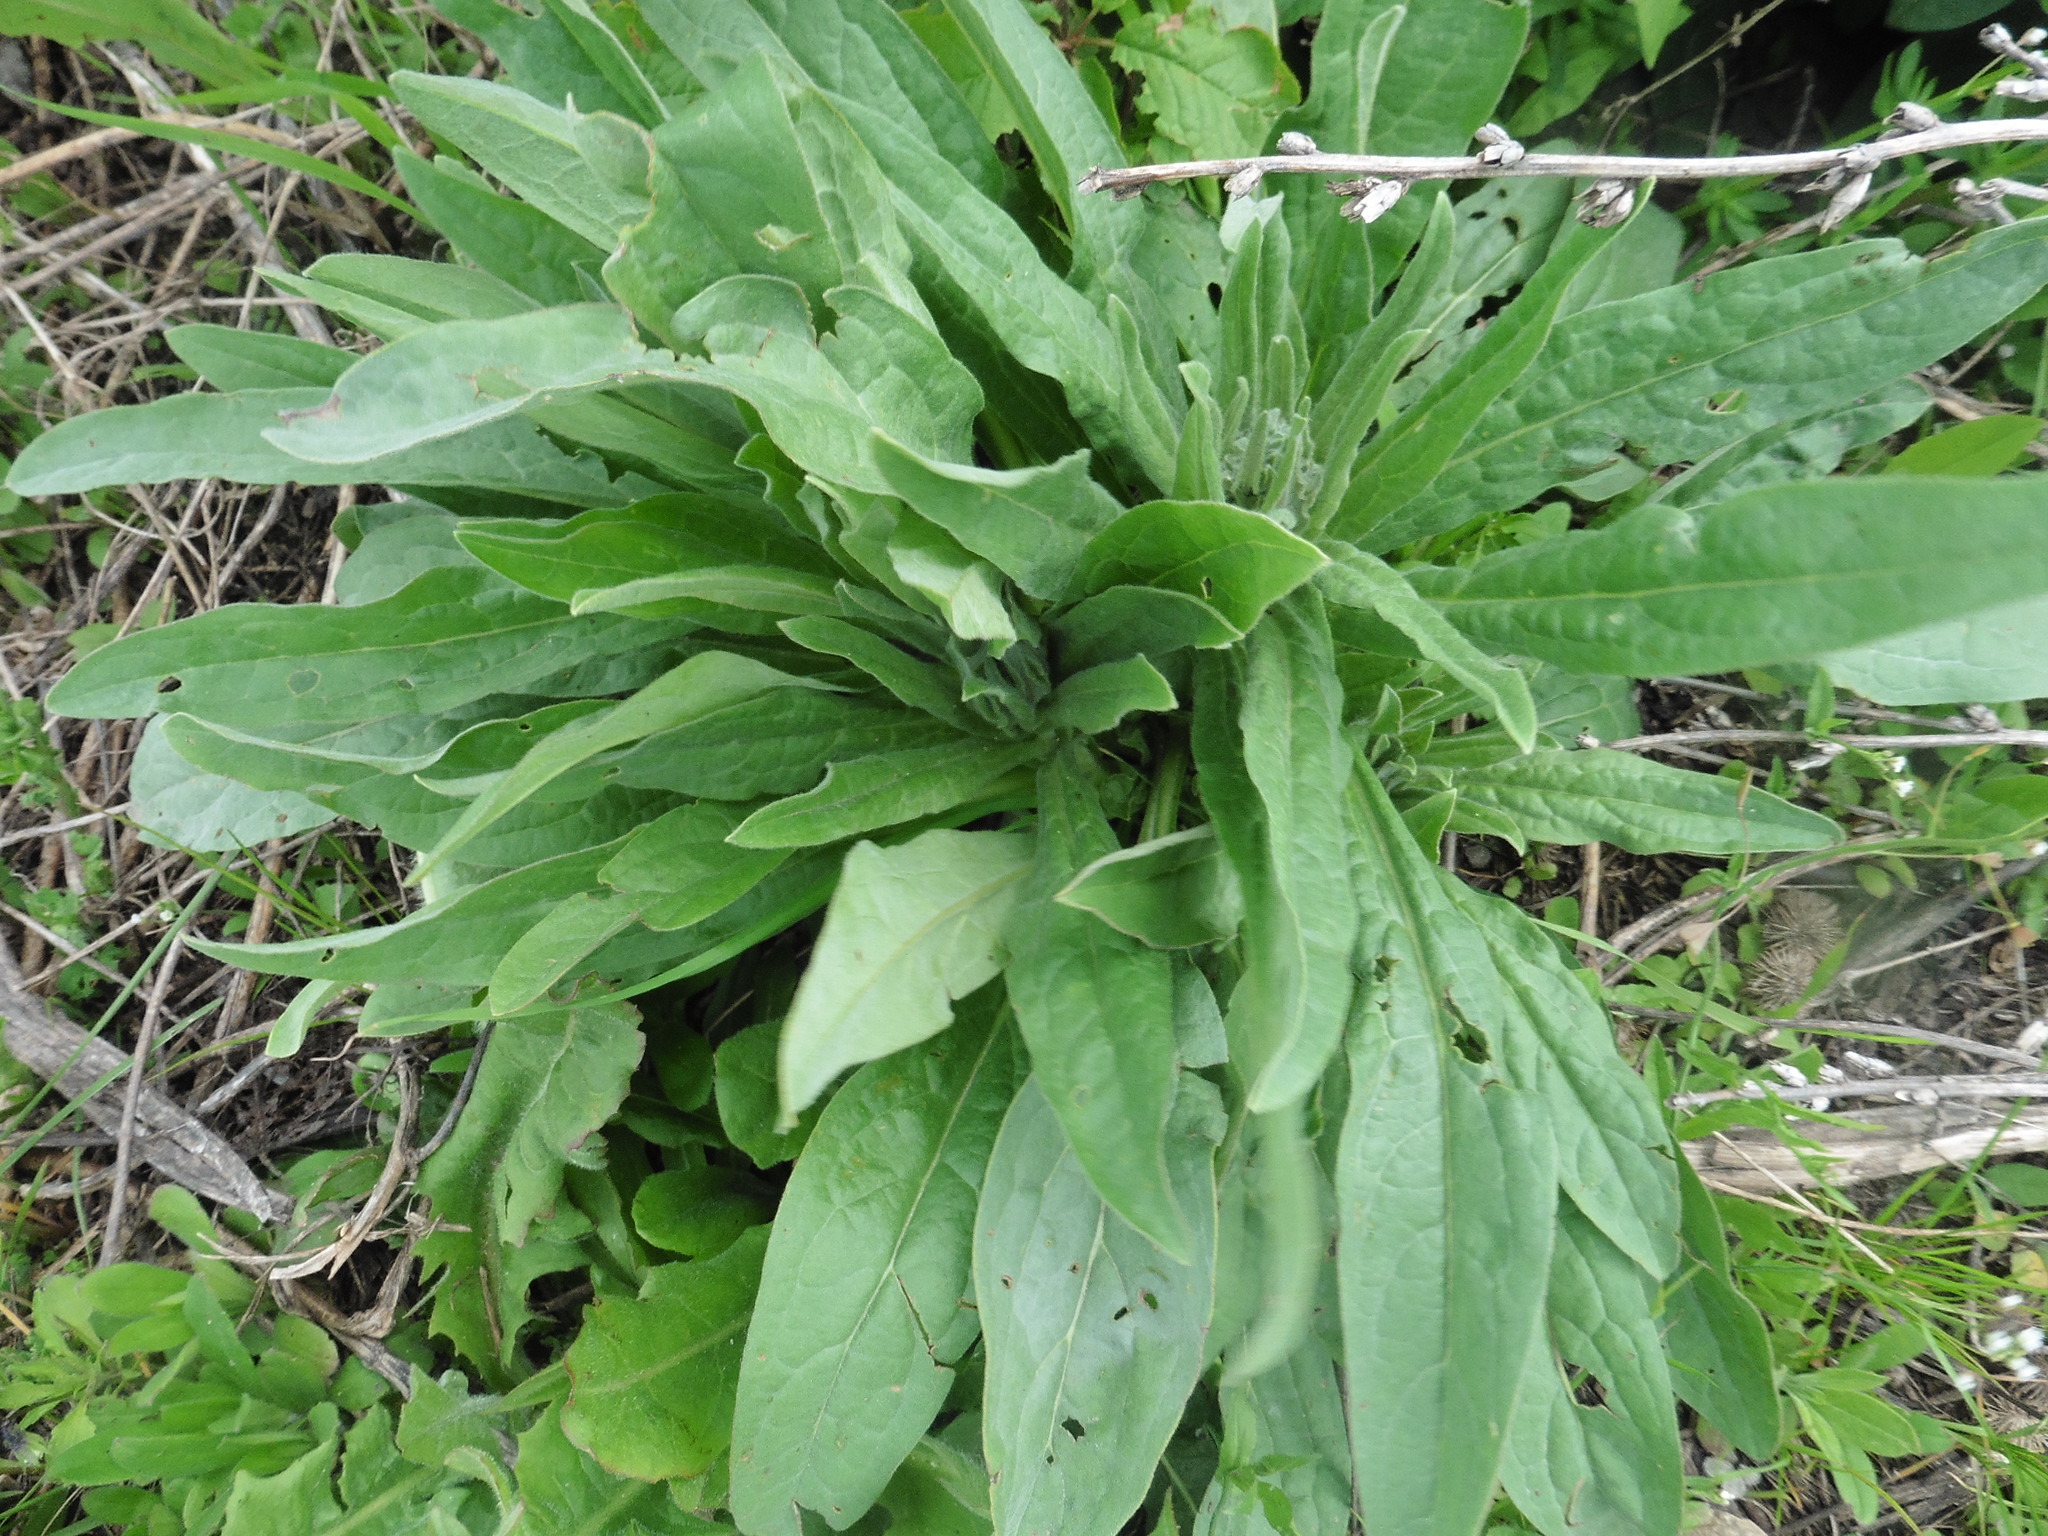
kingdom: Plantae
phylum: Tracheophyta
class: Magnoliopsida
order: Boraginales
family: Boraginaceae
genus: Cynoglossum
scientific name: Cynoglossum officinale
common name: Hound's-tongue
